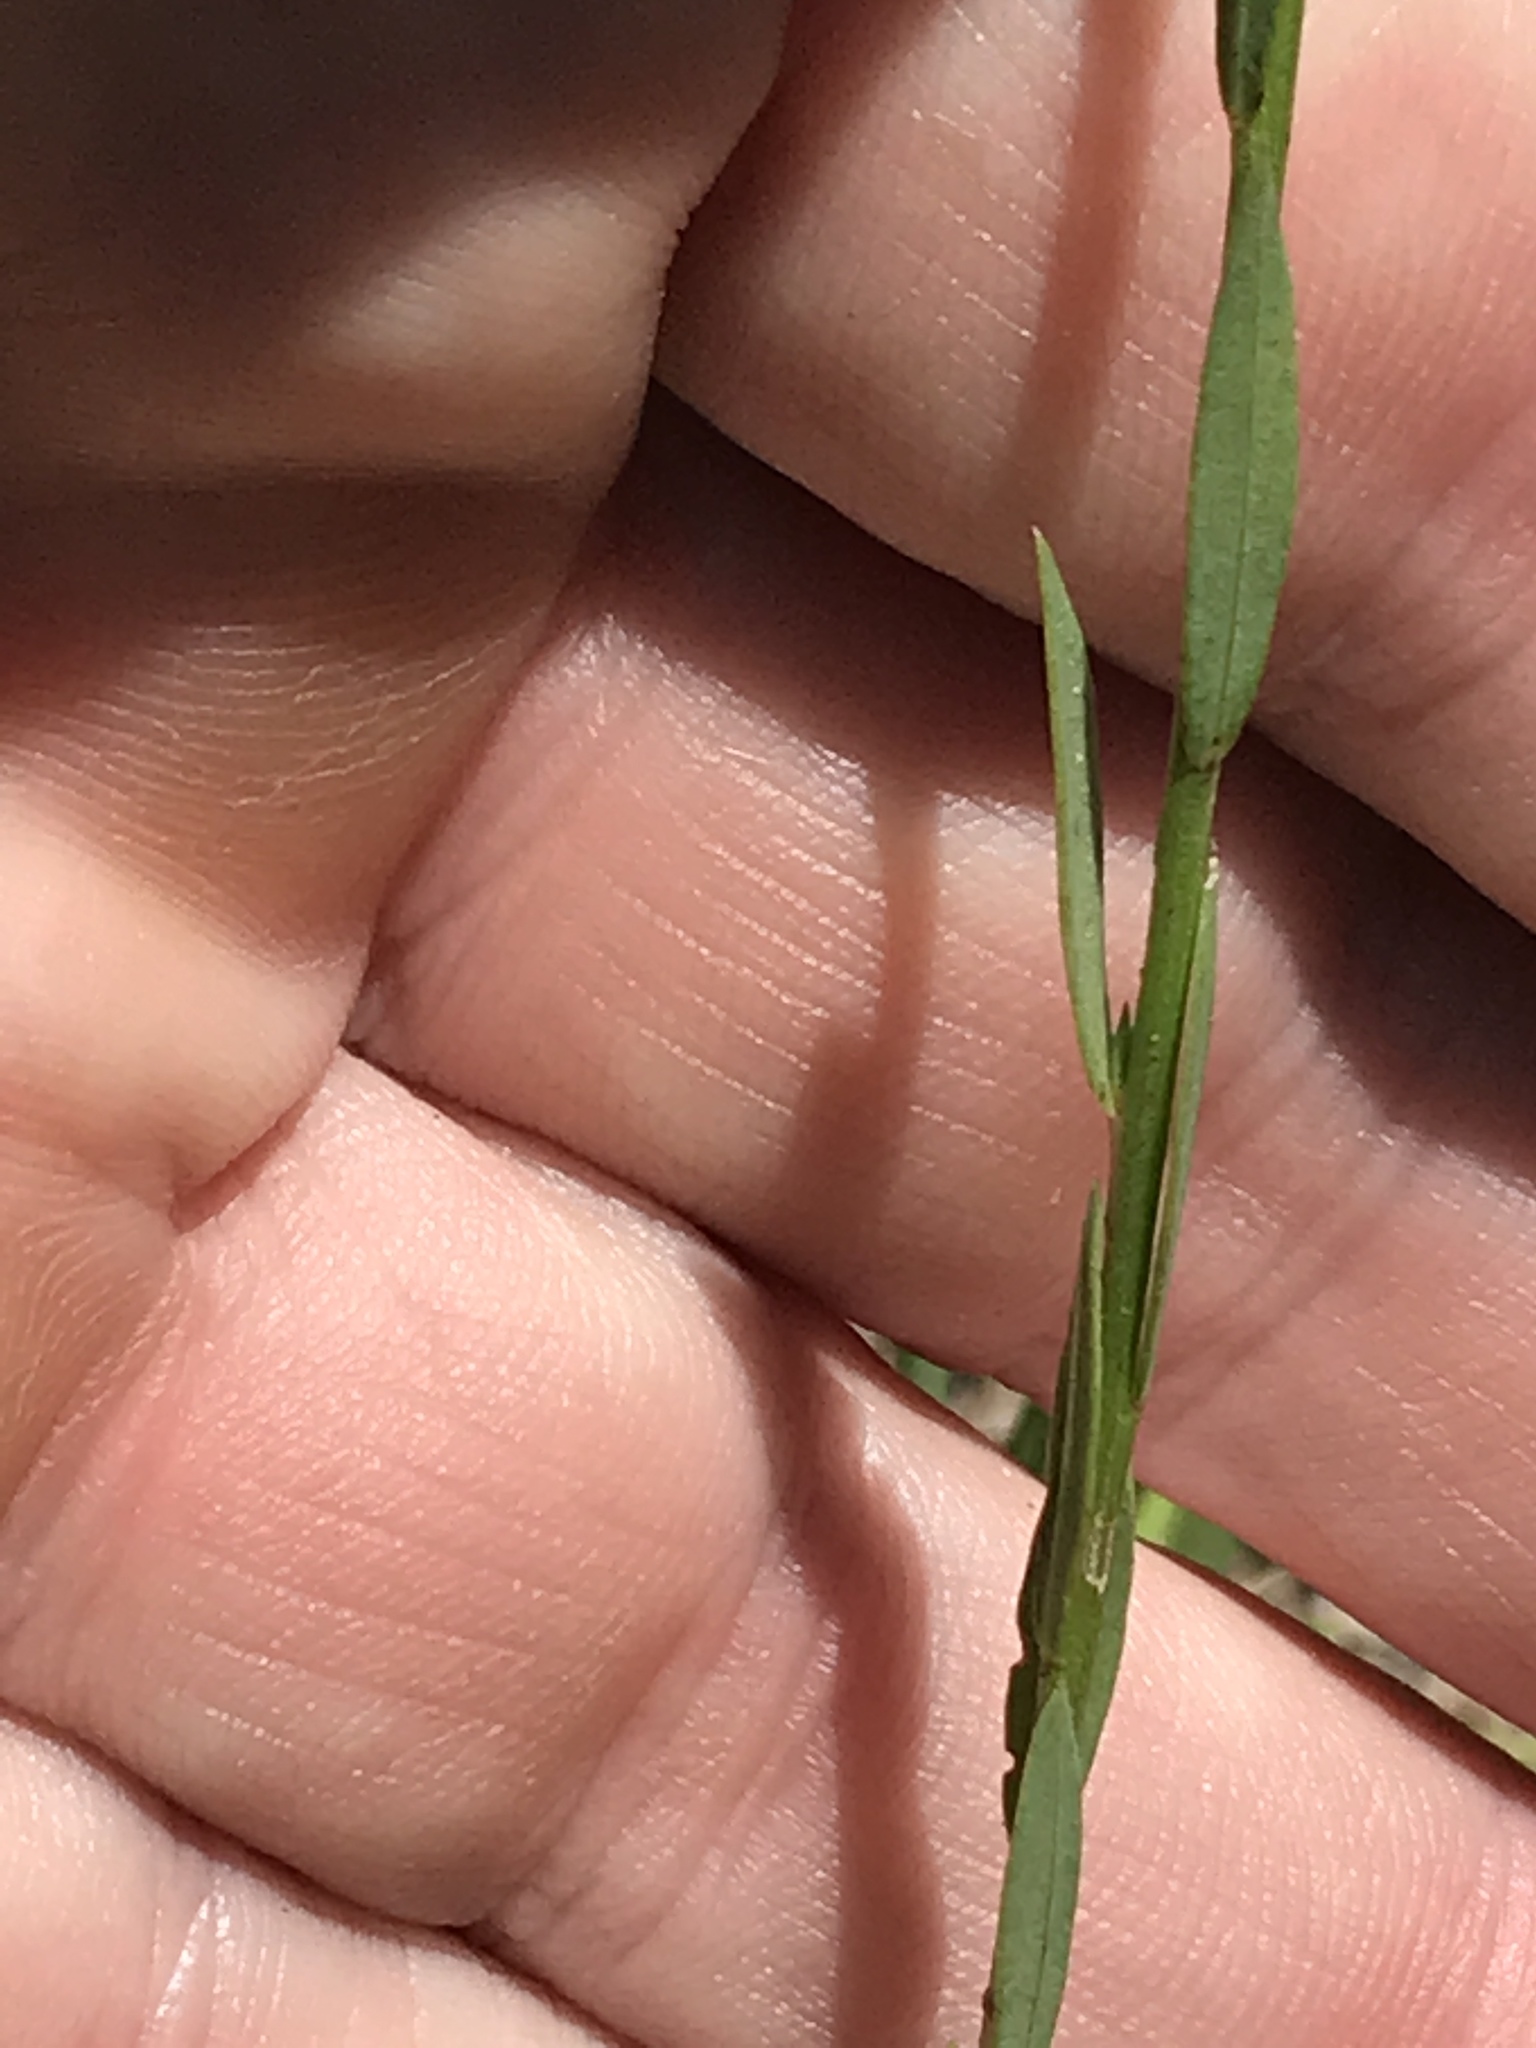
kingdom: Plantae
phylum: Tracheophyta
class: Magnoliopsida
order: Malpighiales
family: Linaceae
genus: Linum
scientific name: Linum medium
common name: Stiff yellow flax
